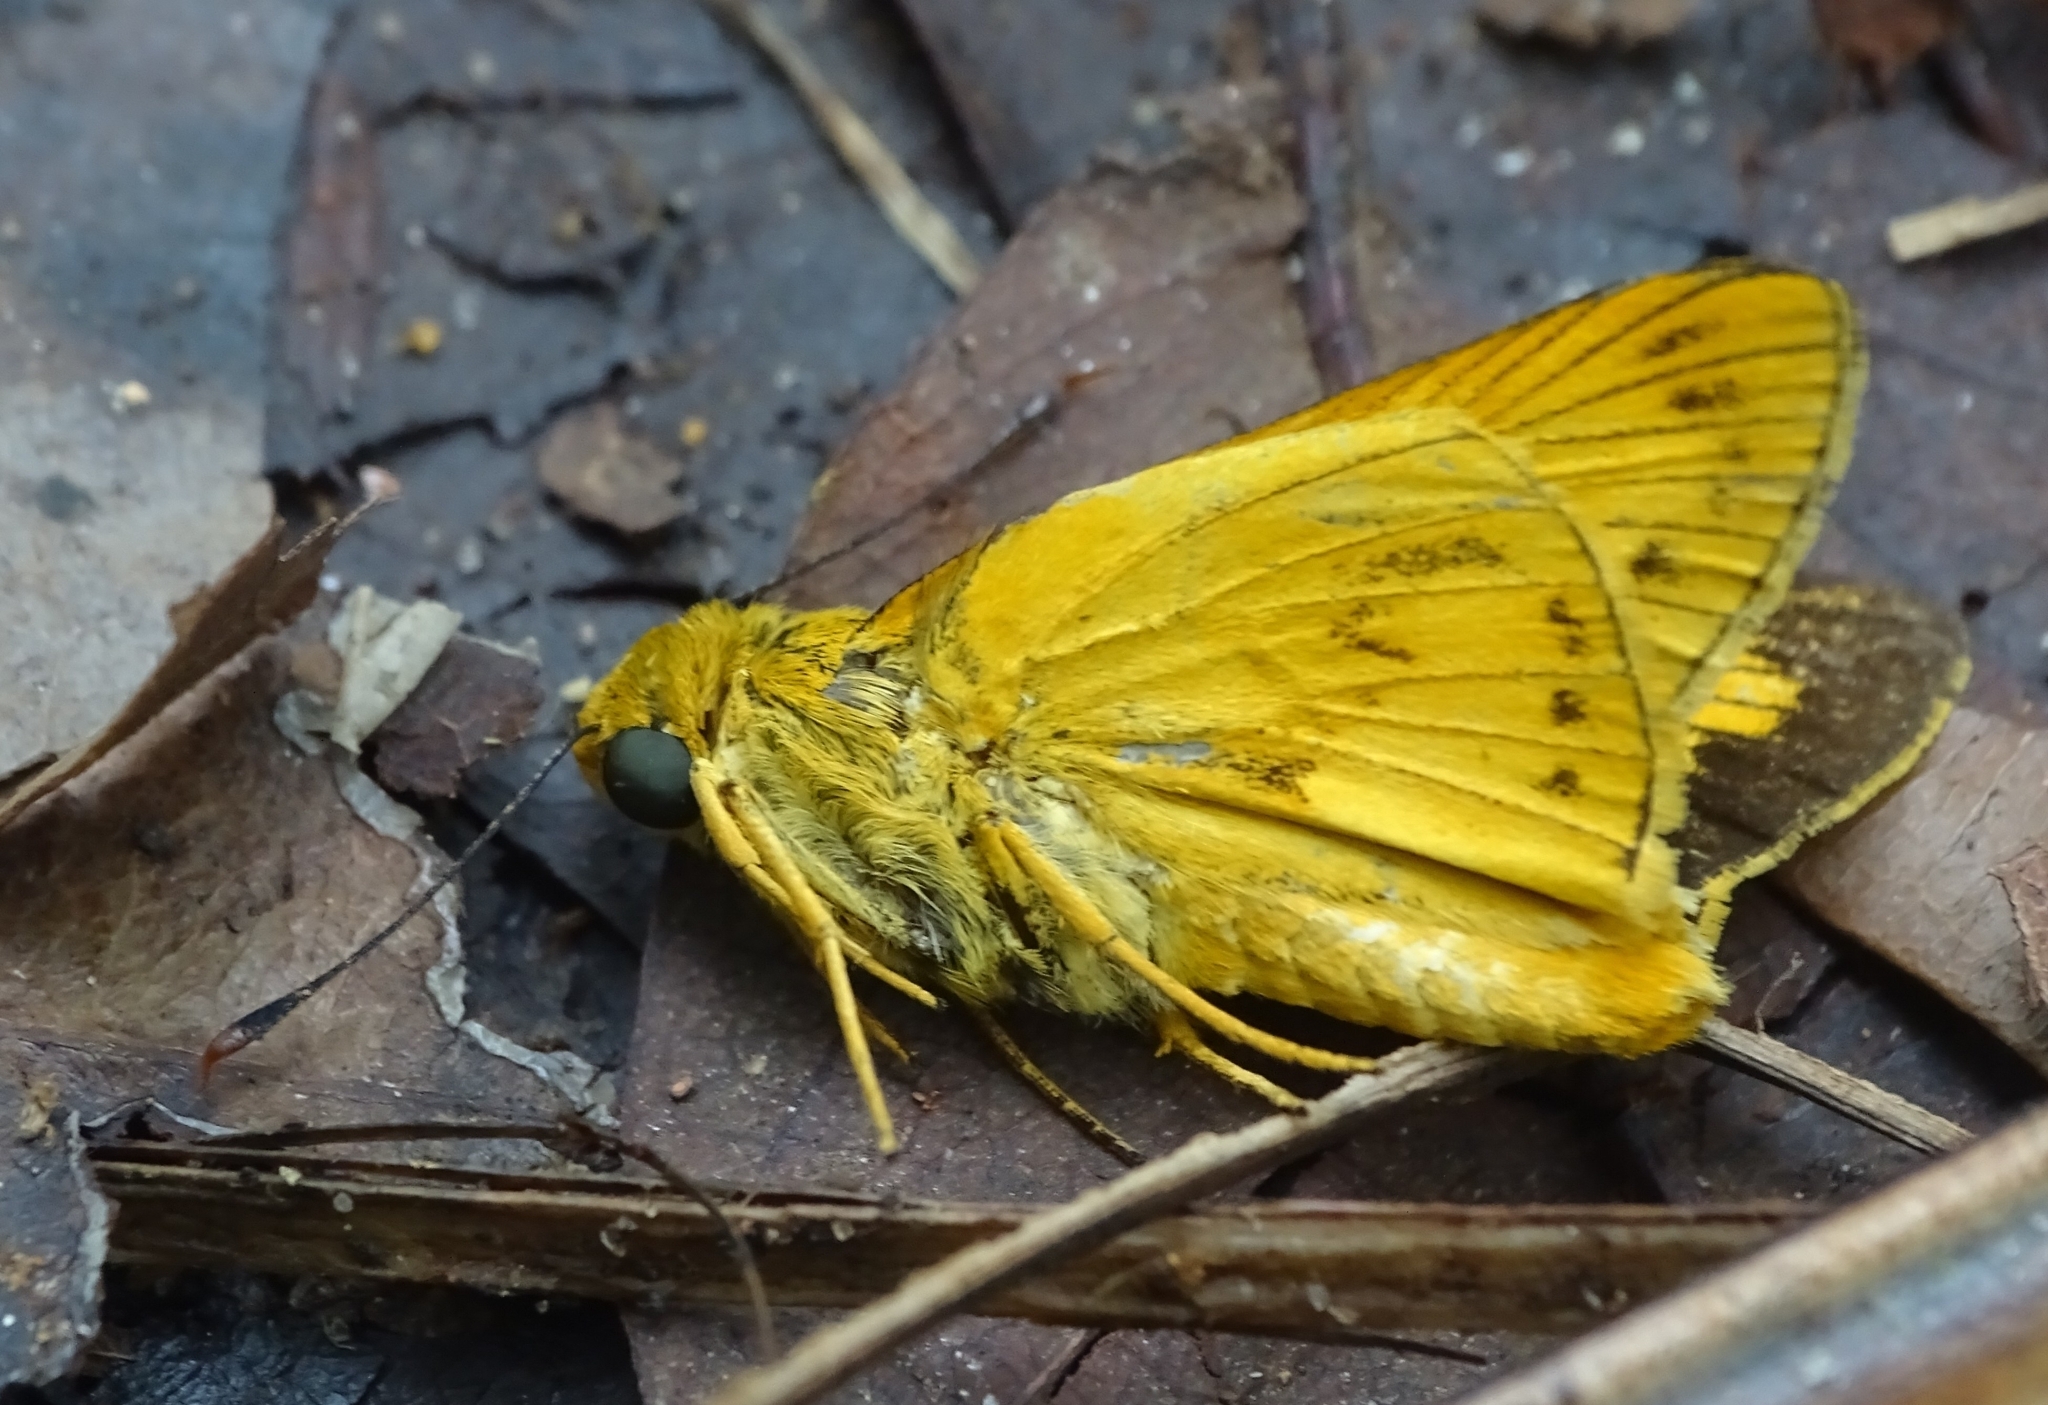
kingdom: Animalia
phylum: Arthropoda
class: Insecta
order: Lepidoptera
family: Hesperiidae
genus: Cephrenes
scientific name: Cephrenes
